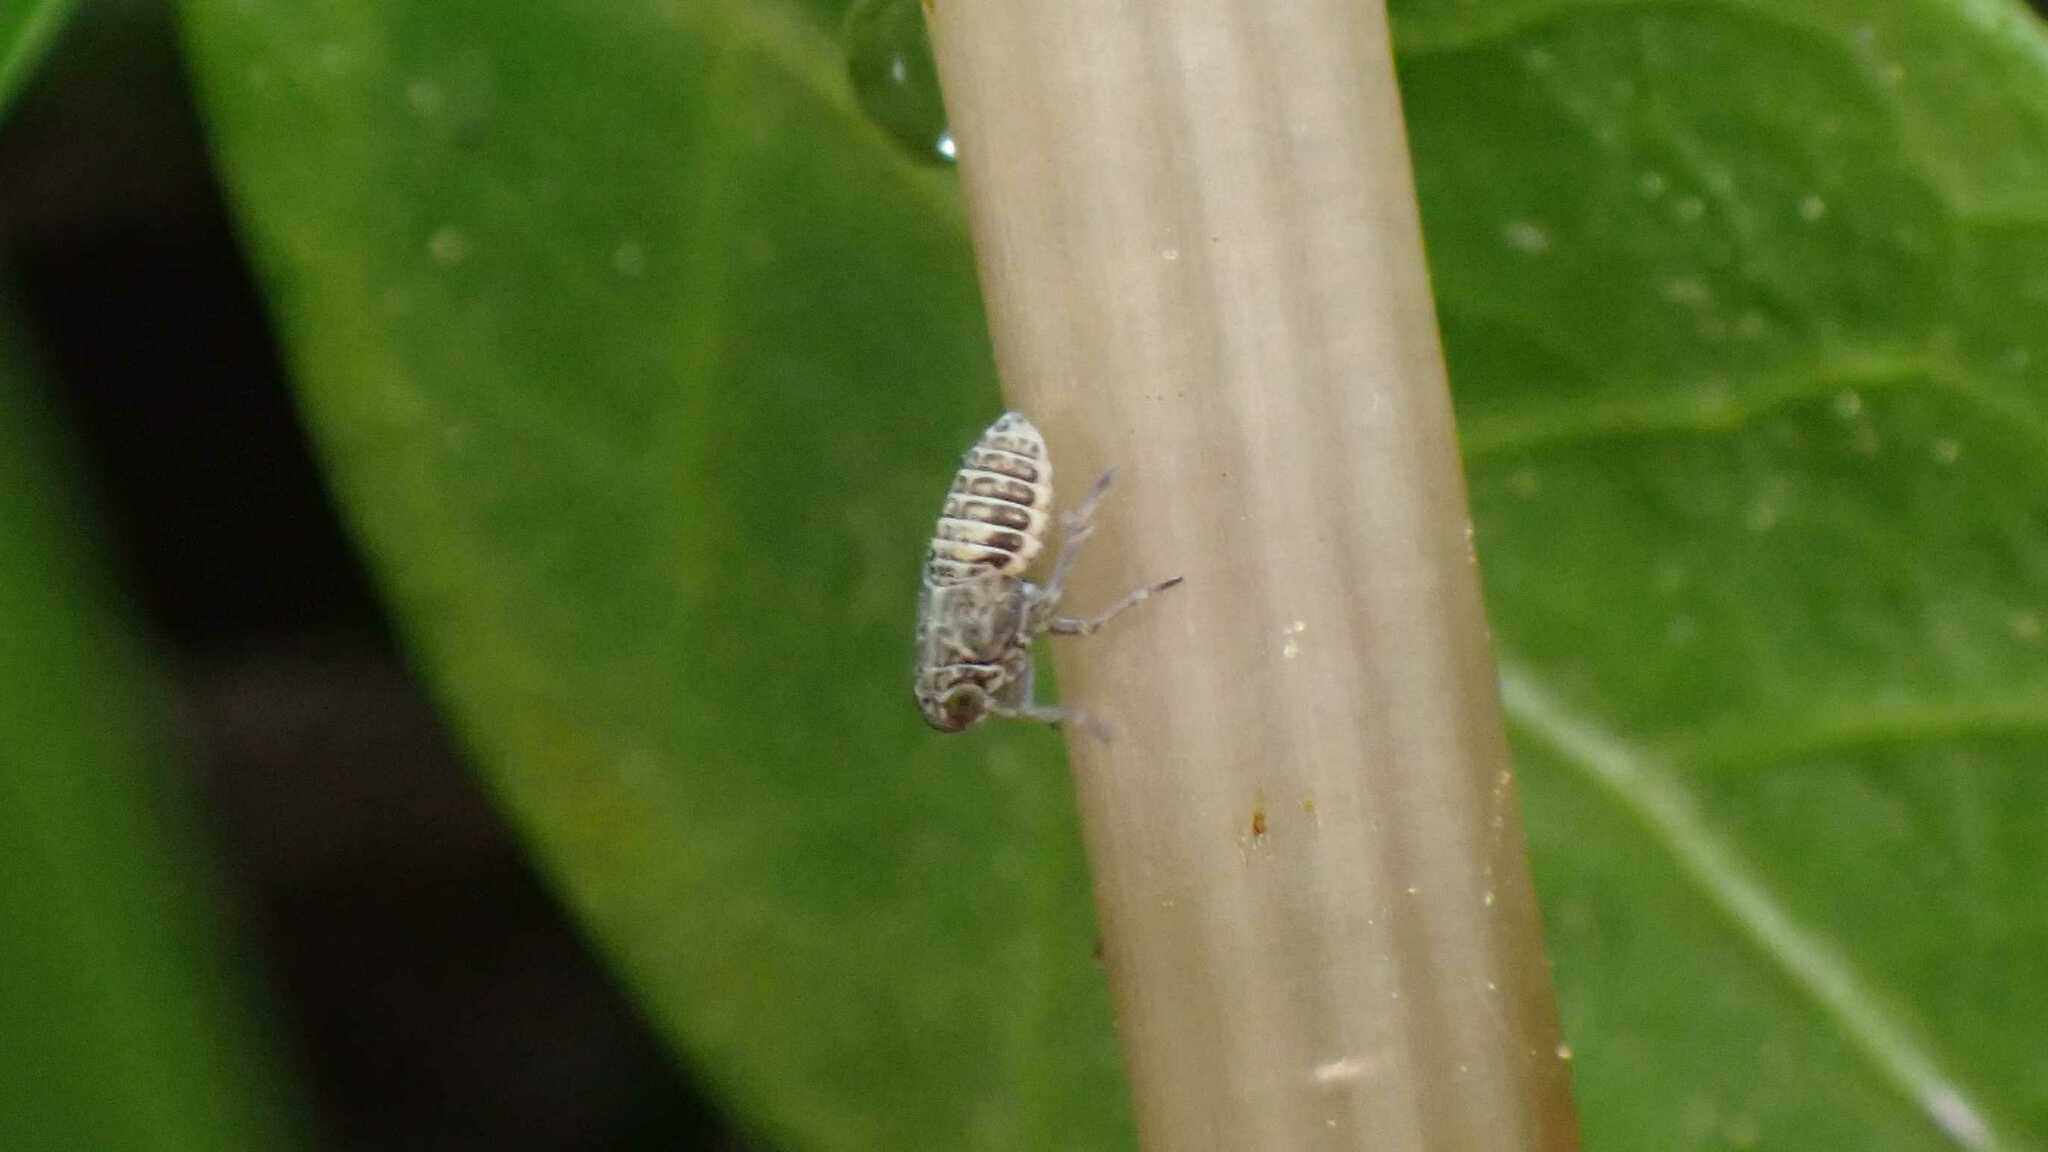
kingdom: Animalia
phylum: Arthropoda
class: Insecta
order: Hemiptera
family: Delphacidae
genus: Javesella
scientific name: Javesella stali
